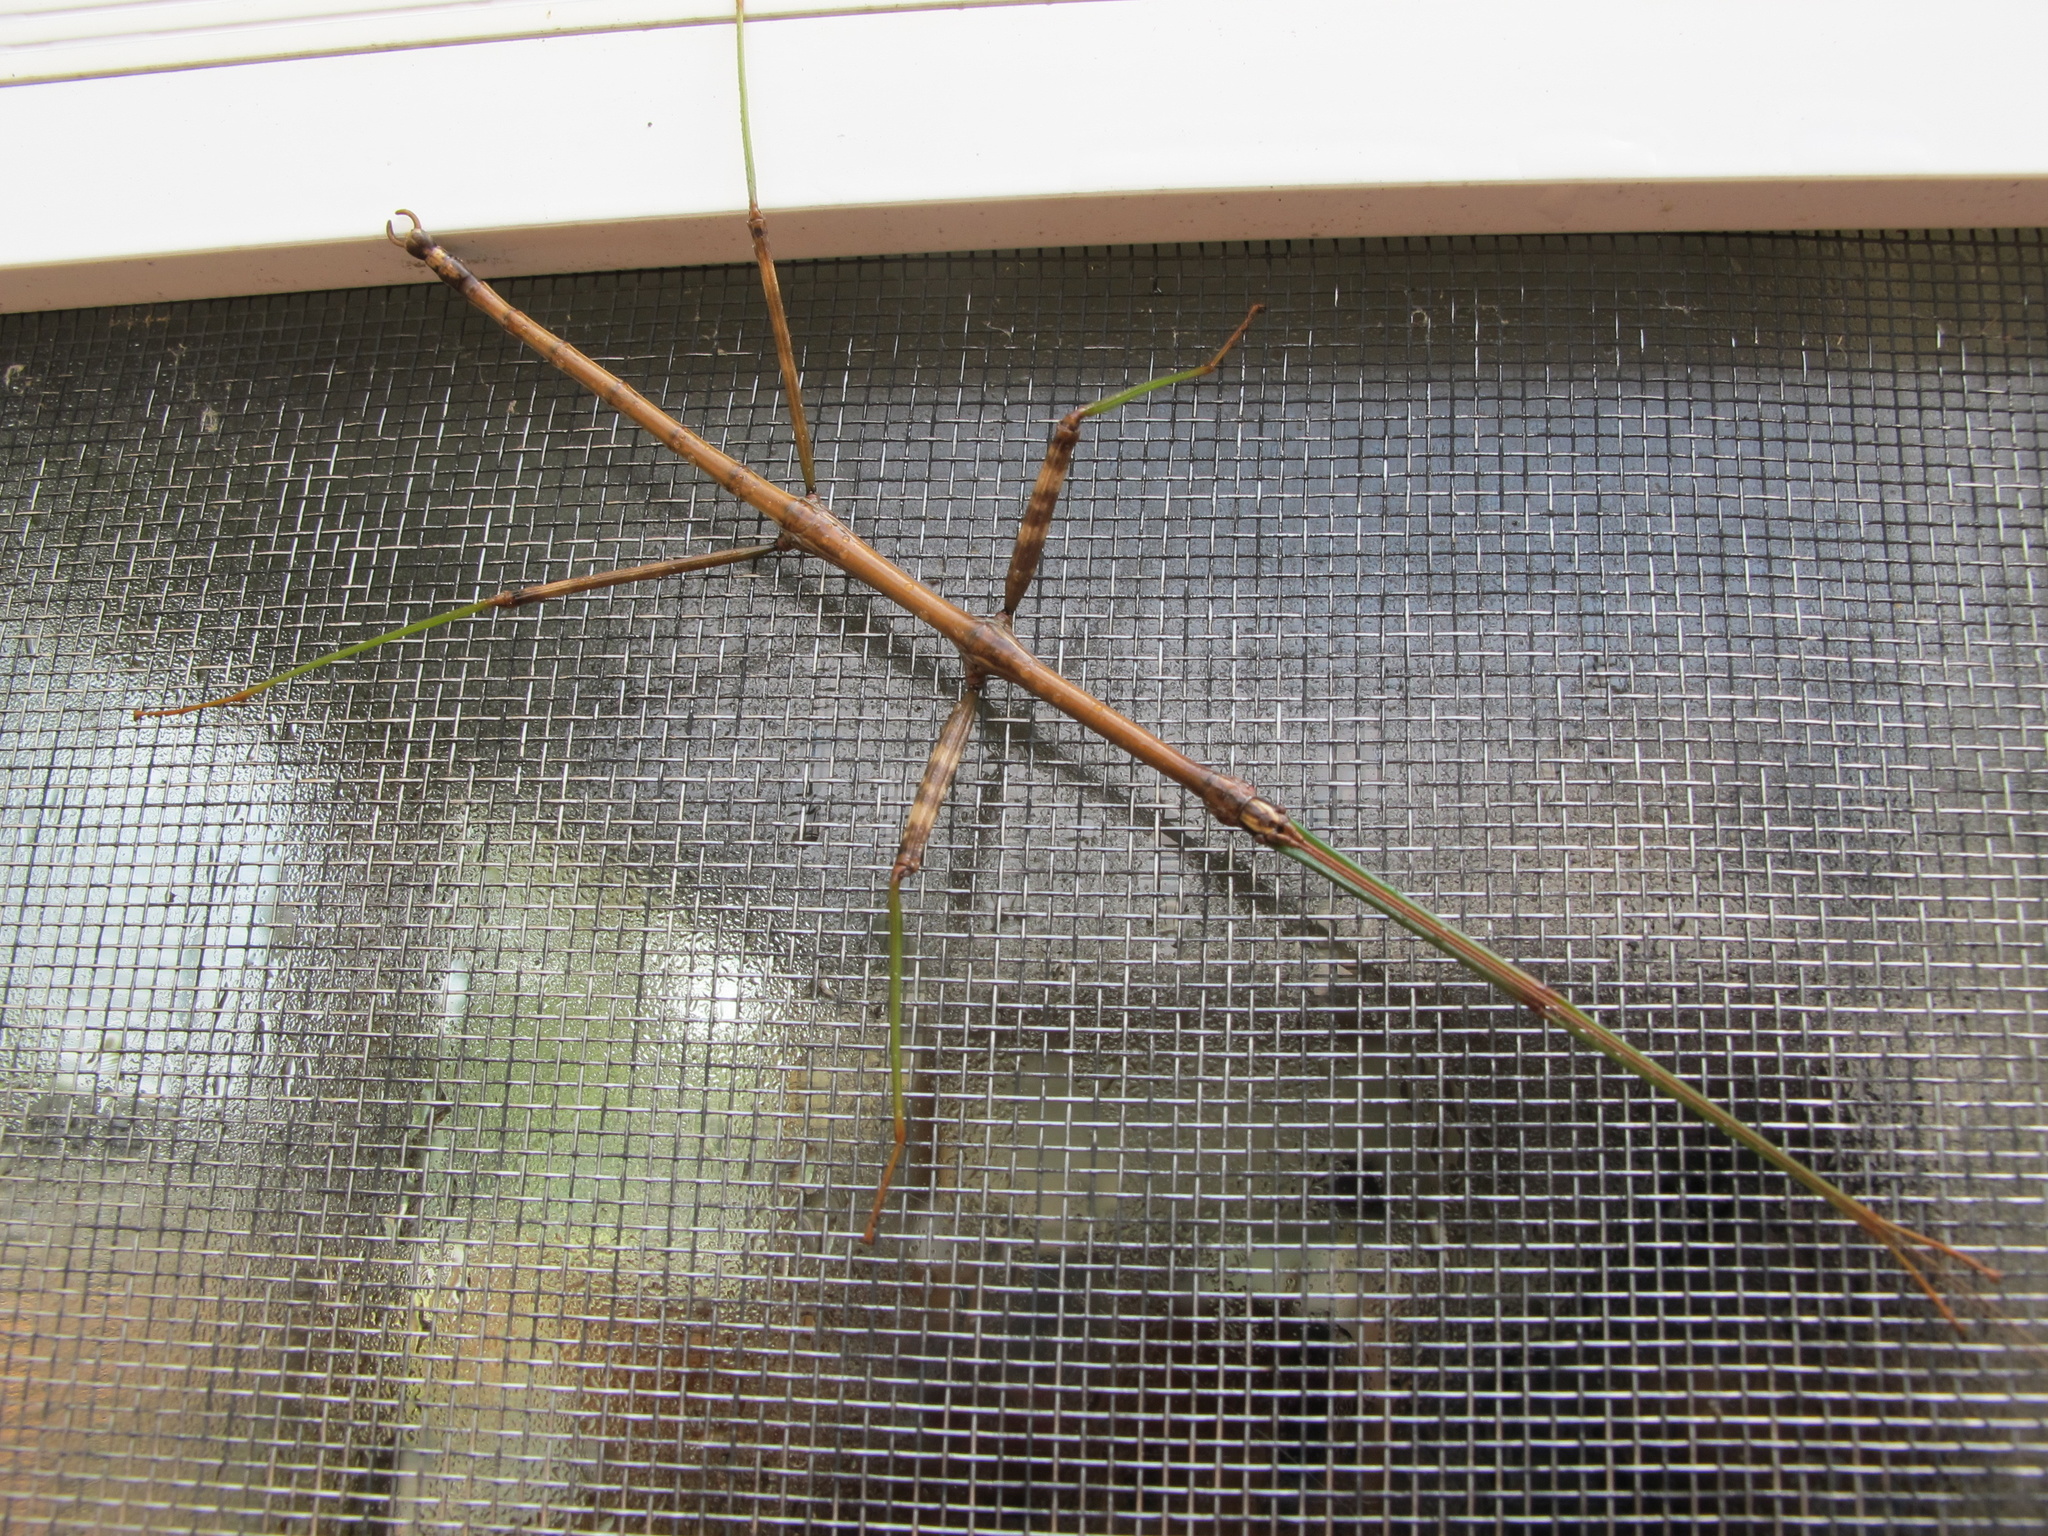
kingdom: Animalia
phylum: Arthropoda
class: Insecta
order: Phasmida
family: Diapheromeridae
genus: Diapheromera
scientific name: Diapheromera femorata
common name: Common american walkingstick
